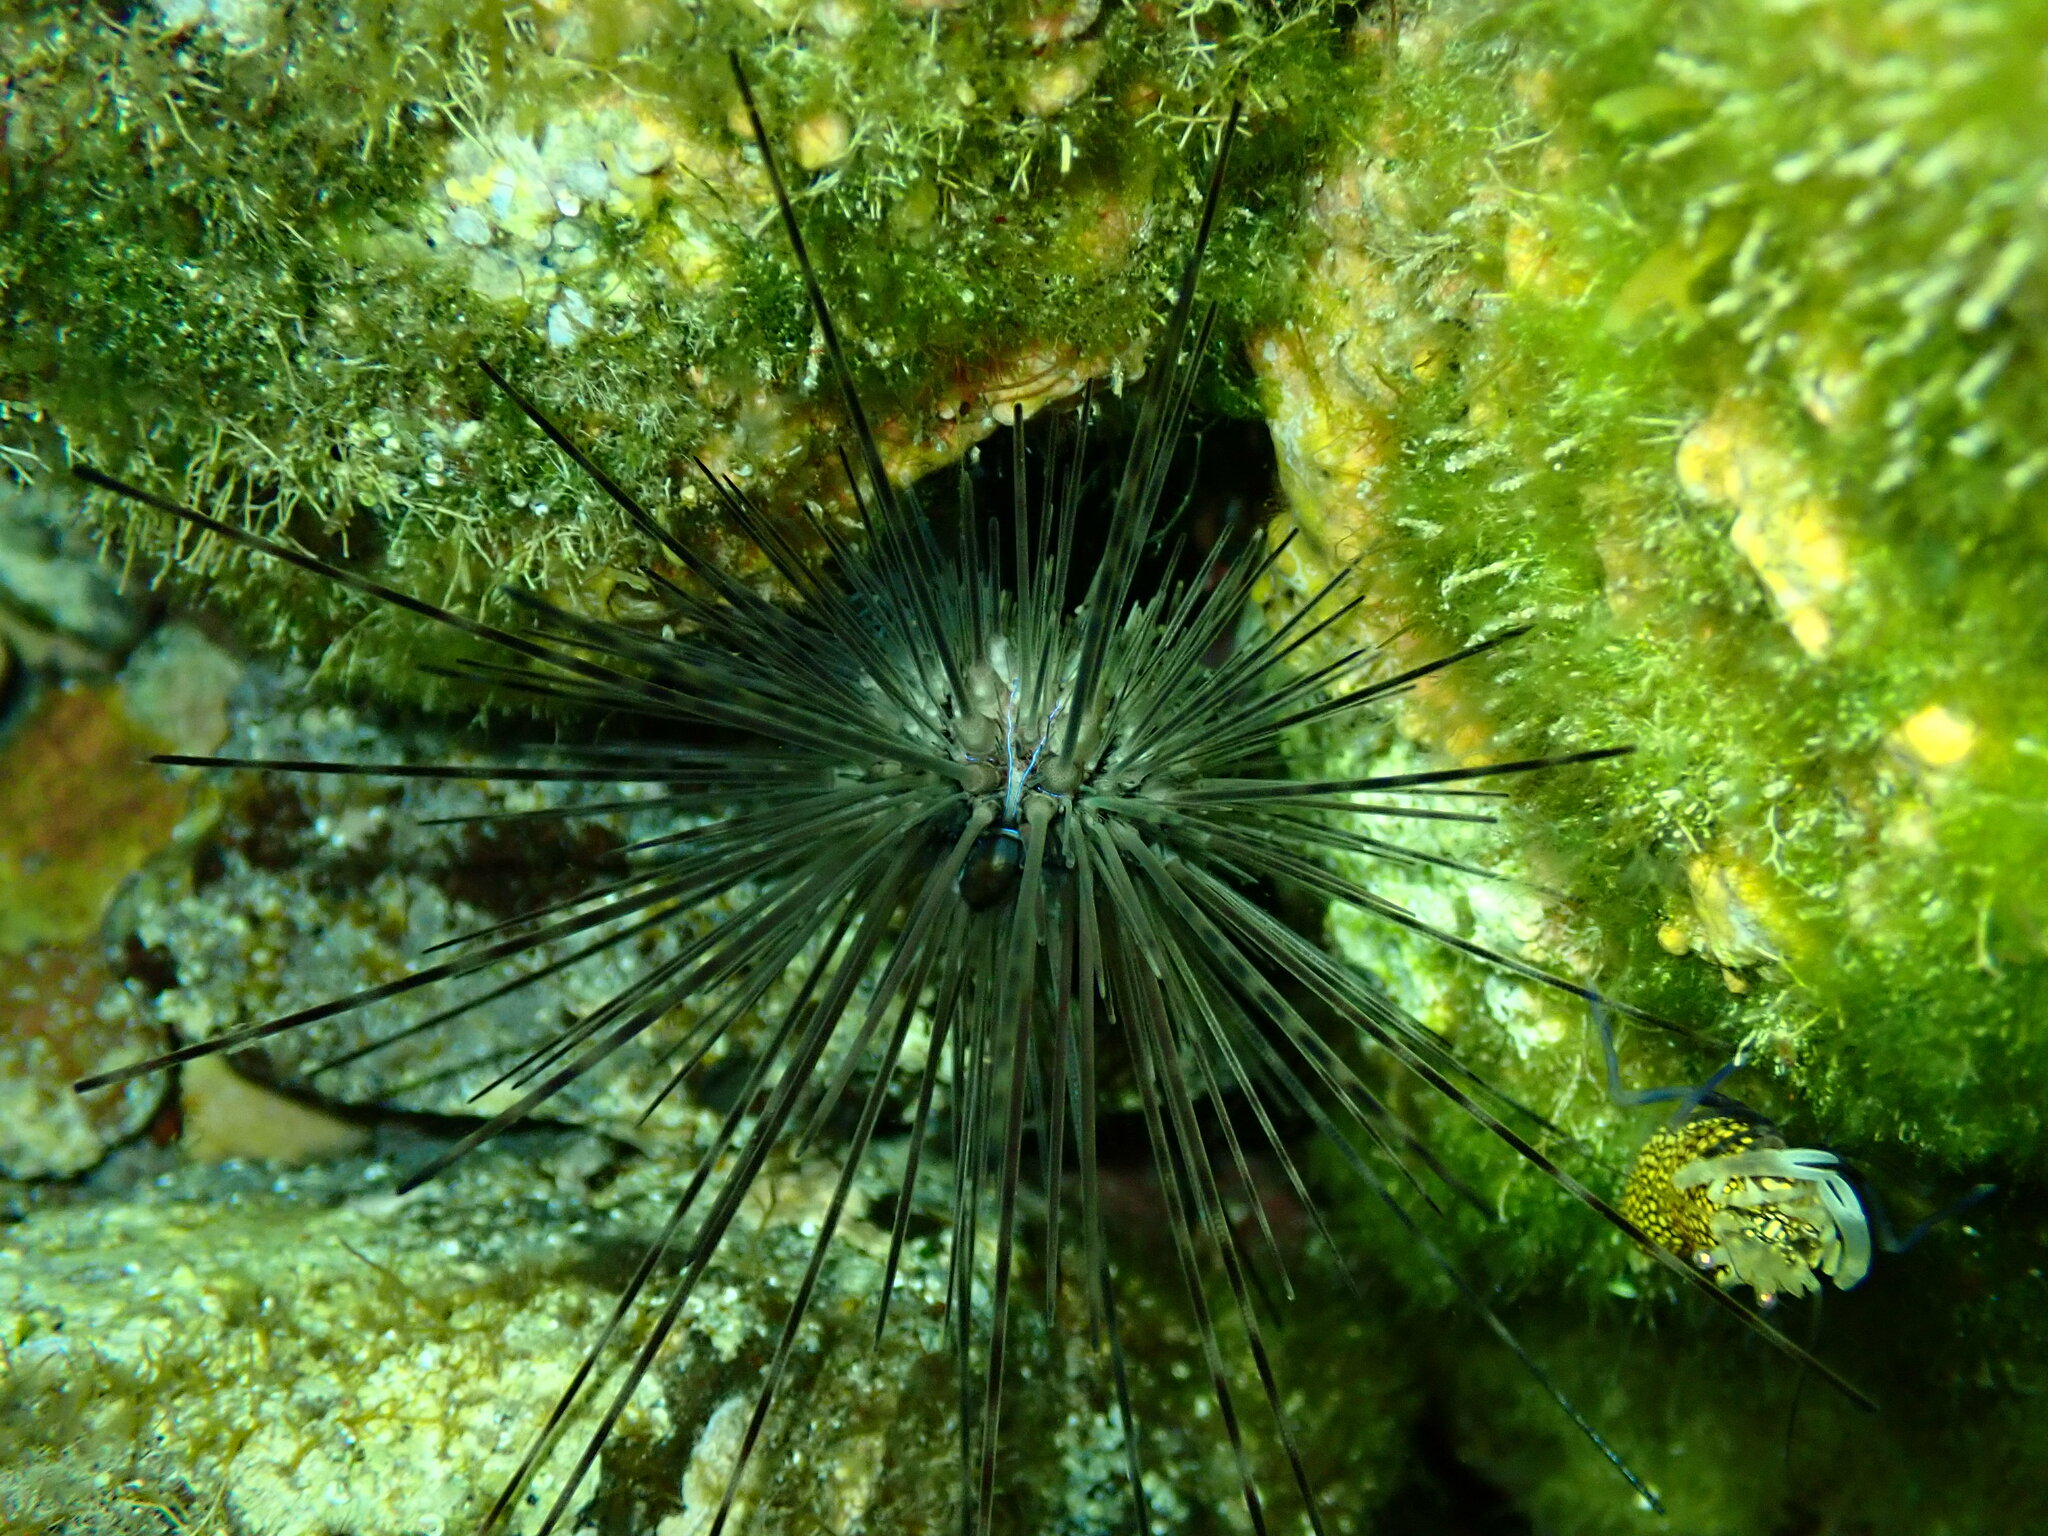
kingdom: Animalia
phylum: Echinodermata
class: Echinoidea
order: Diadematoida
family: Diadematidae
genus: Diadema
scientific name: Diadema africanum
